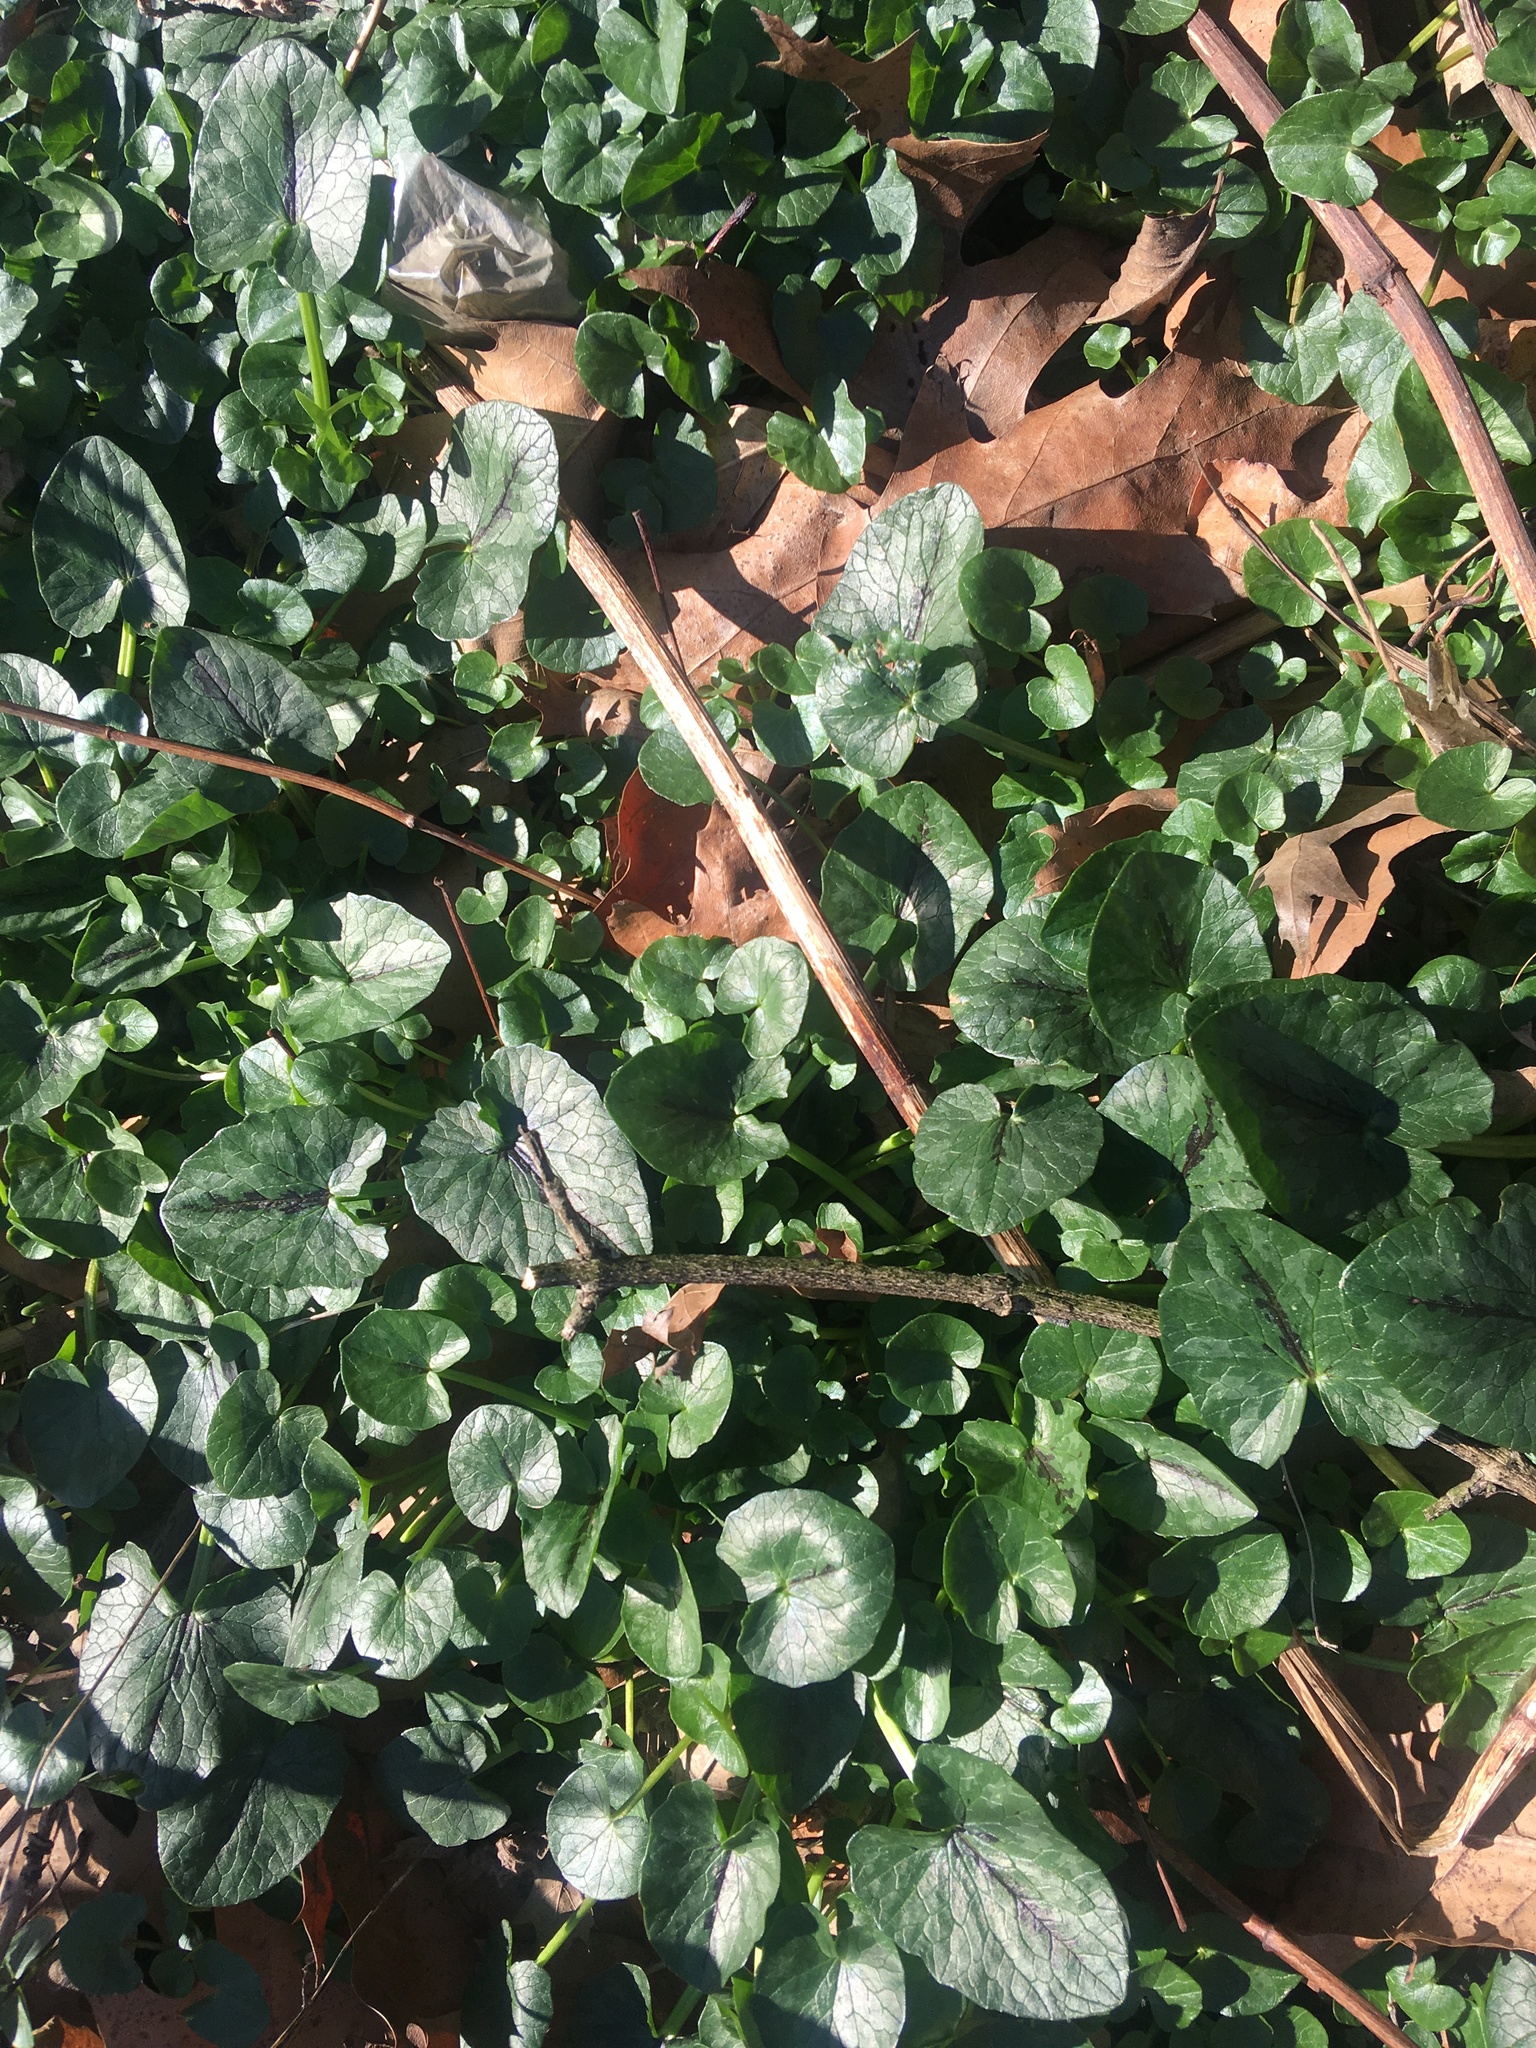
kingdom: Plantae
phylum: Tracheophyta
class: Magnoliopsida
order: Ranunculales
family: Ranunculaceae
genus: Ficaria
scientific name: Ficaria verna
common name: Lesser celandine
